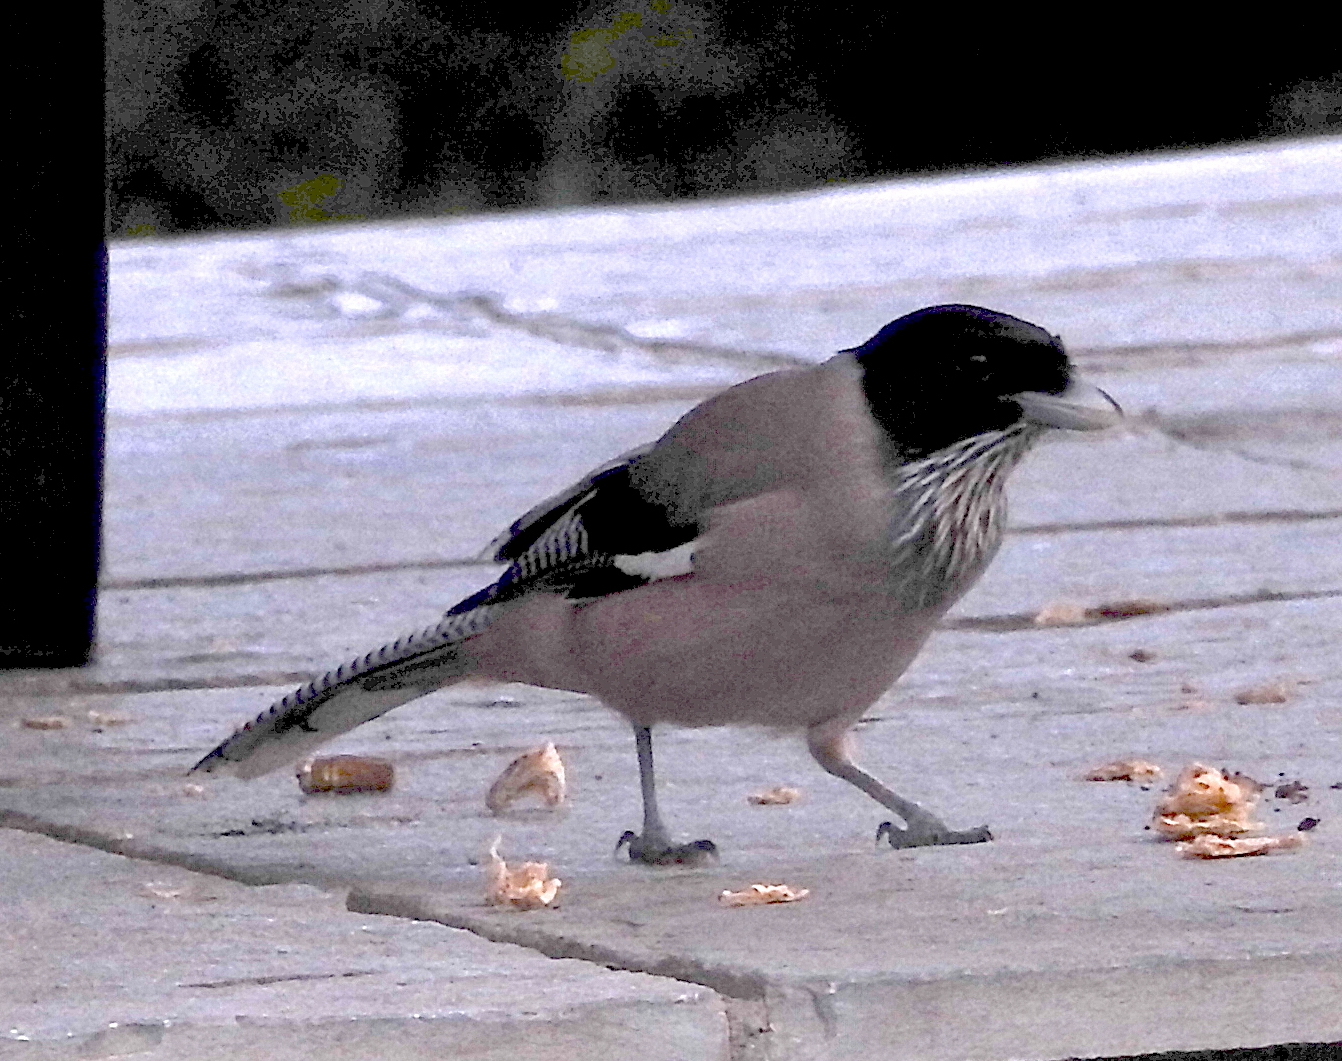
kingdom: Animalia
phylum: Chordata
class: Aves
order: Passeriformes
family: Corvidae
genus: Garrulus
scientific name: Garrulus lanceolatus
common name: Black-headed jay
